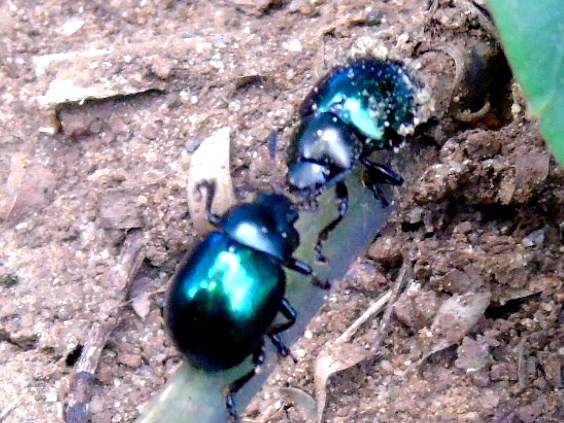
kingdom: Animalia
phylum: Arthropoda
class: Insecta
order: Coleoptera
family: Chrysomelidae
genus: Leptinotarsa
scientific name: Leptinotarsa haldemani
